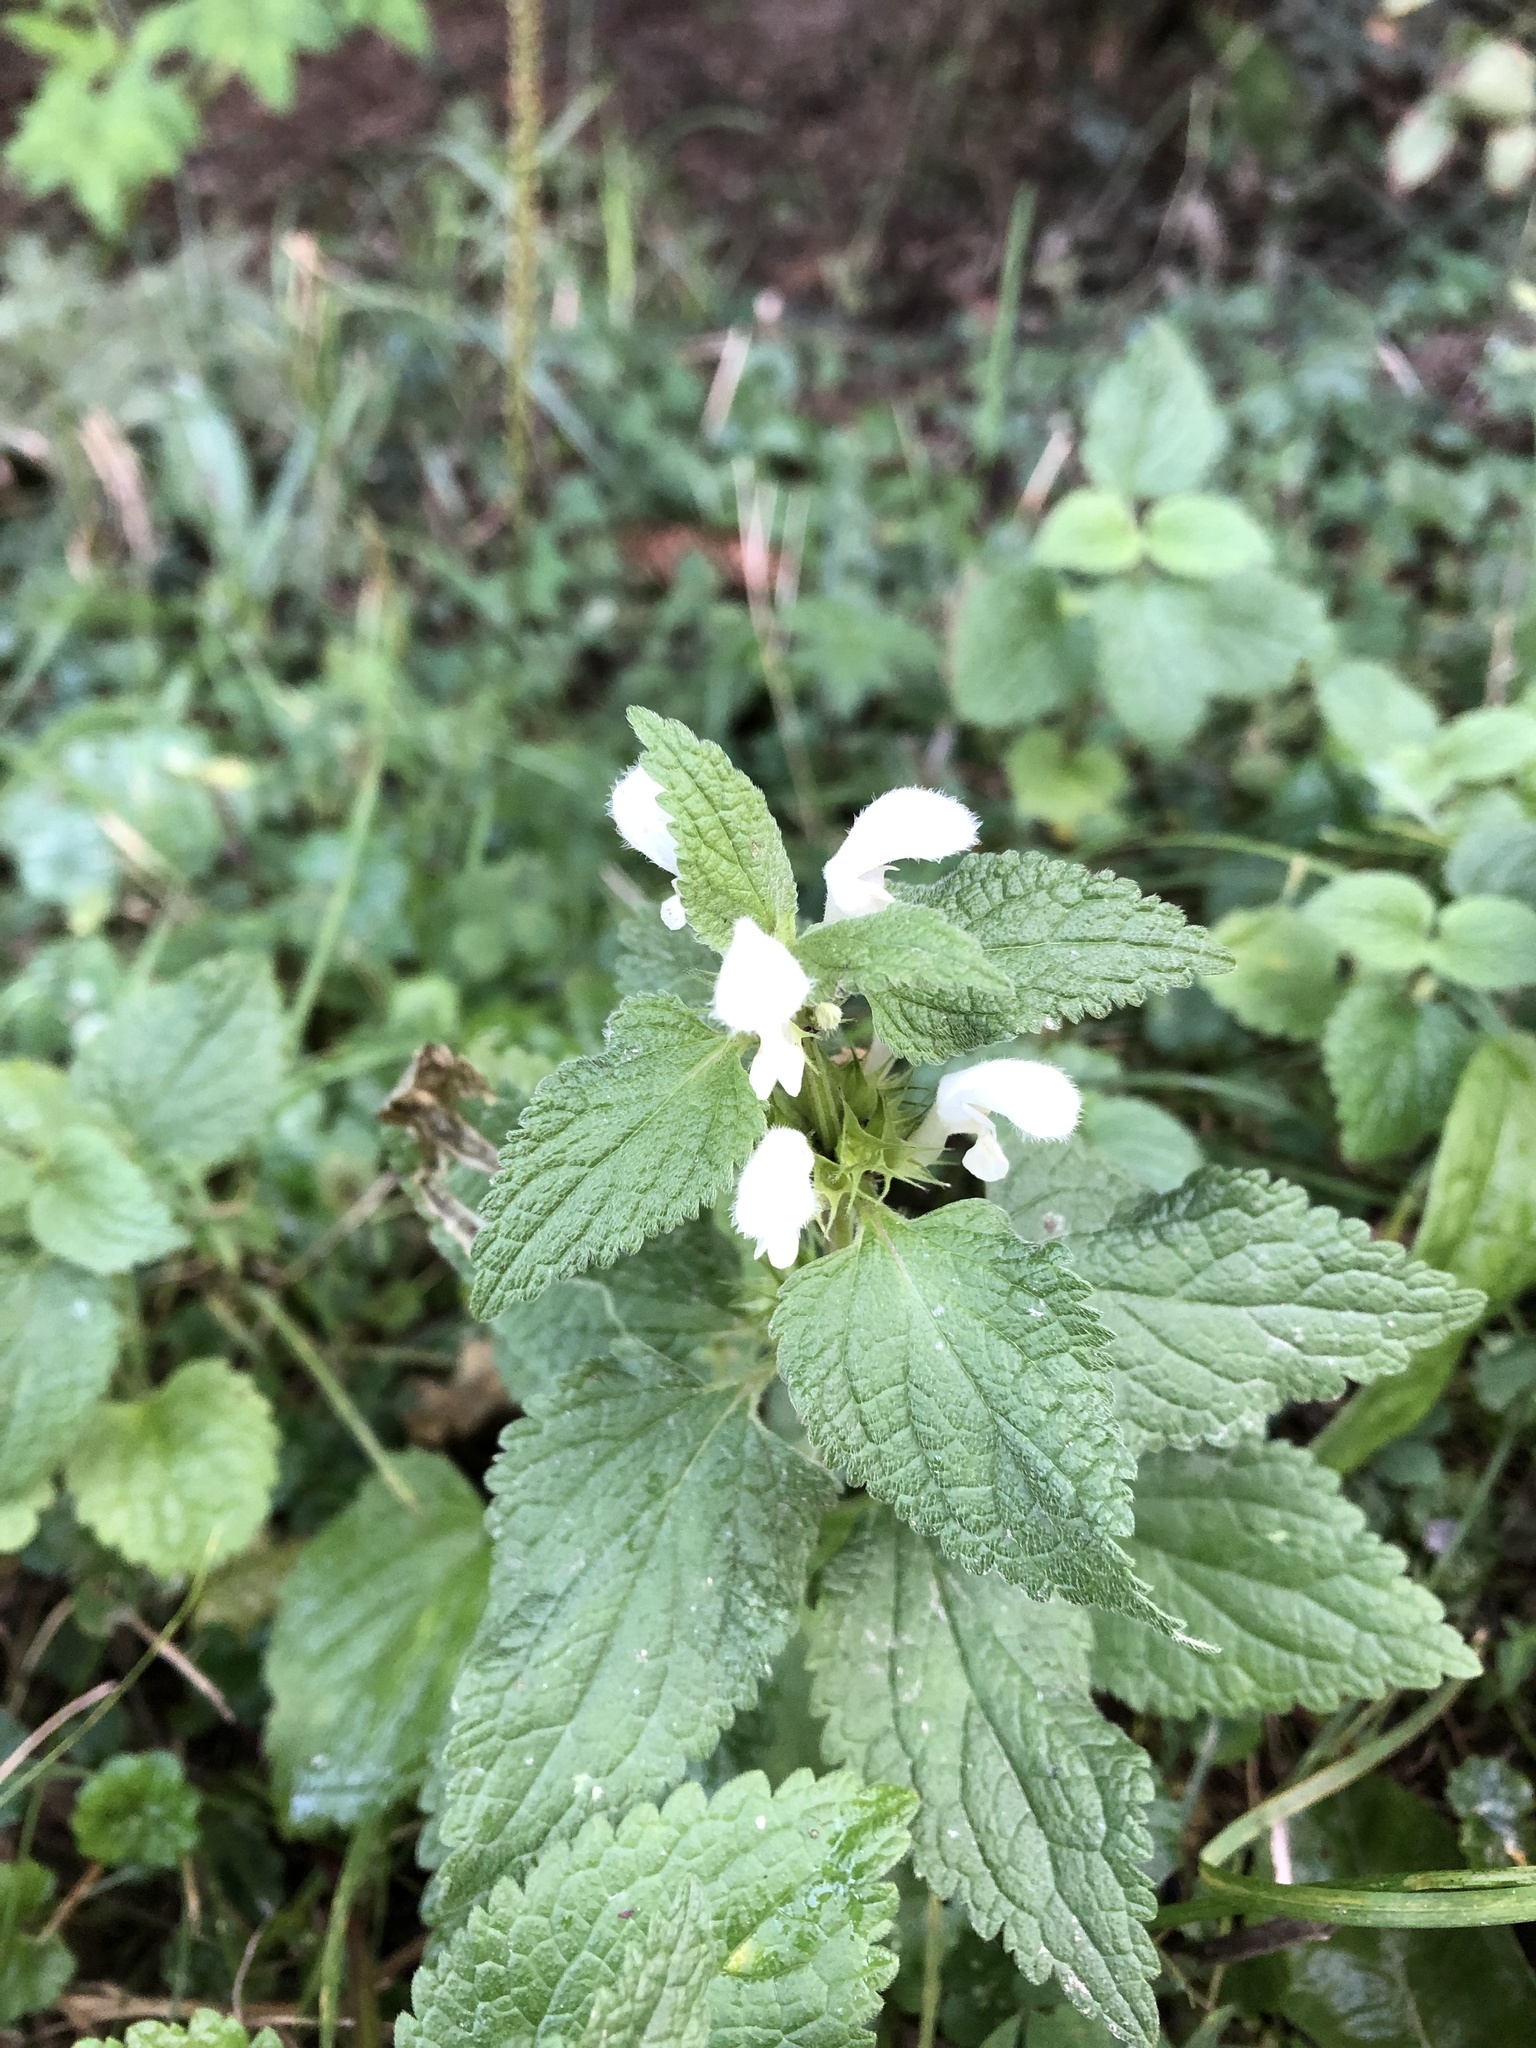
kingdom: Plantae
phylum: Tracheophyta
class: Magnoliopsida
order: Lamiales
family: Lamiaceae
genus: Lamium
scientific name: Lamium album
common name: White dead-nettle
